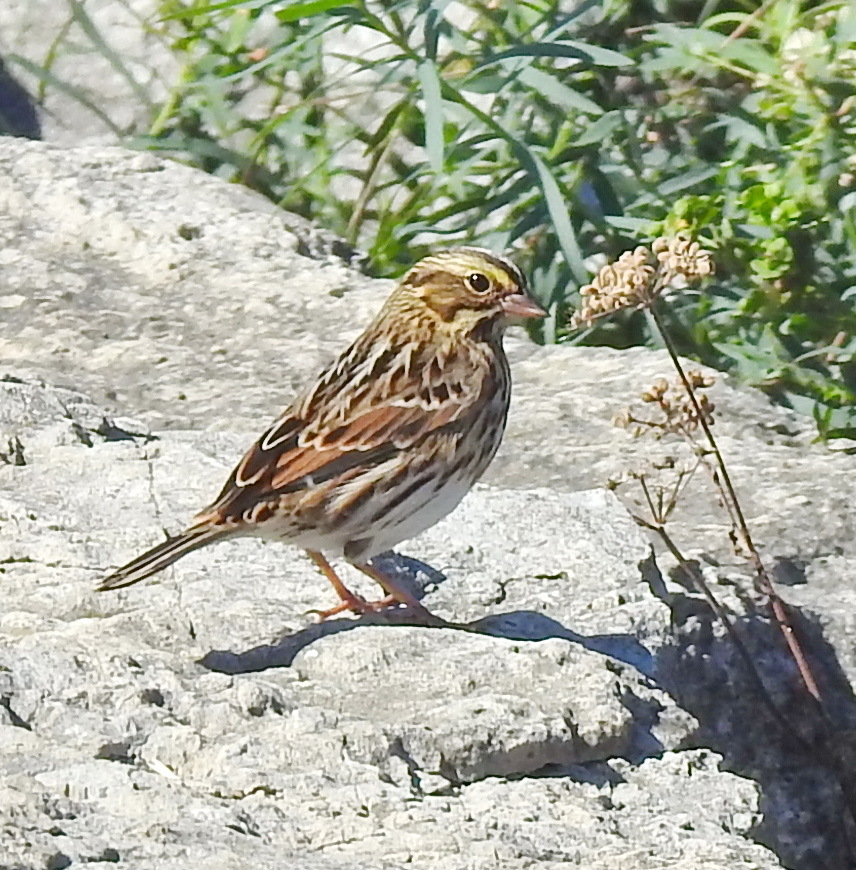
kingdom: Animalia
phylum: Chordata
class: Aves
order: Passeriformes
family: Passerellidae
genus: Passerculus
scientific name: Passerculus sandwichensis
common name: Savannah sparrow
